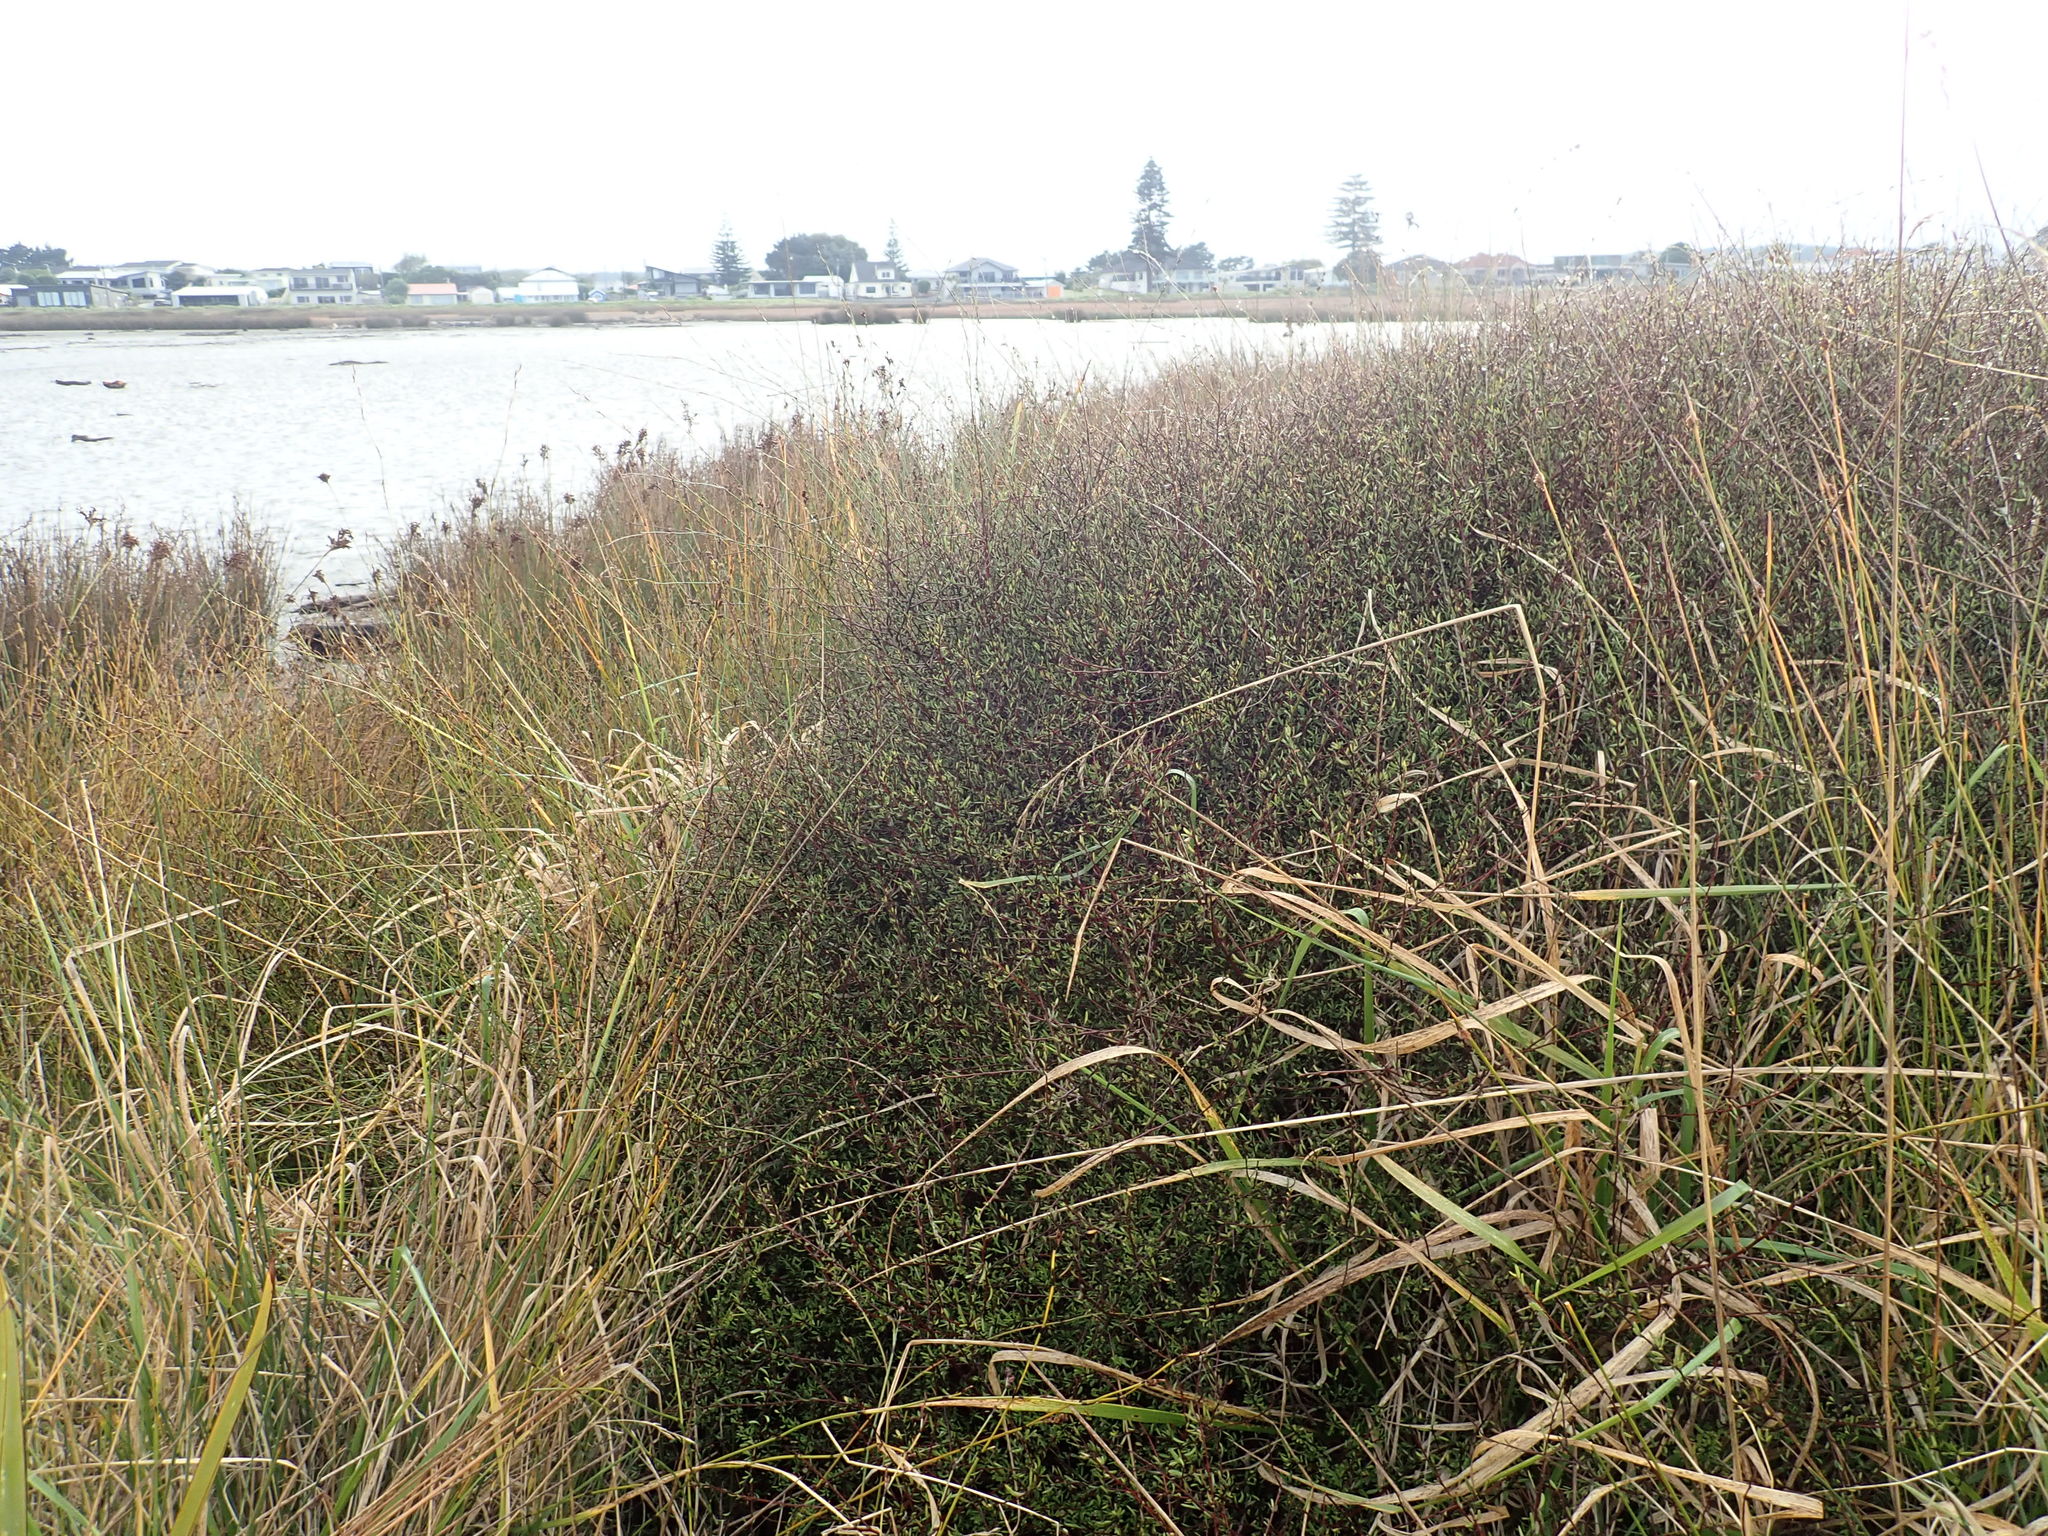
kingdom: Plantae
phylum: Tracheophyta
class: Magnoliopsida
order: Malvales
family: Malvaceae
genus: Plagianthus
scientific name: Plagianthus divaricatus
